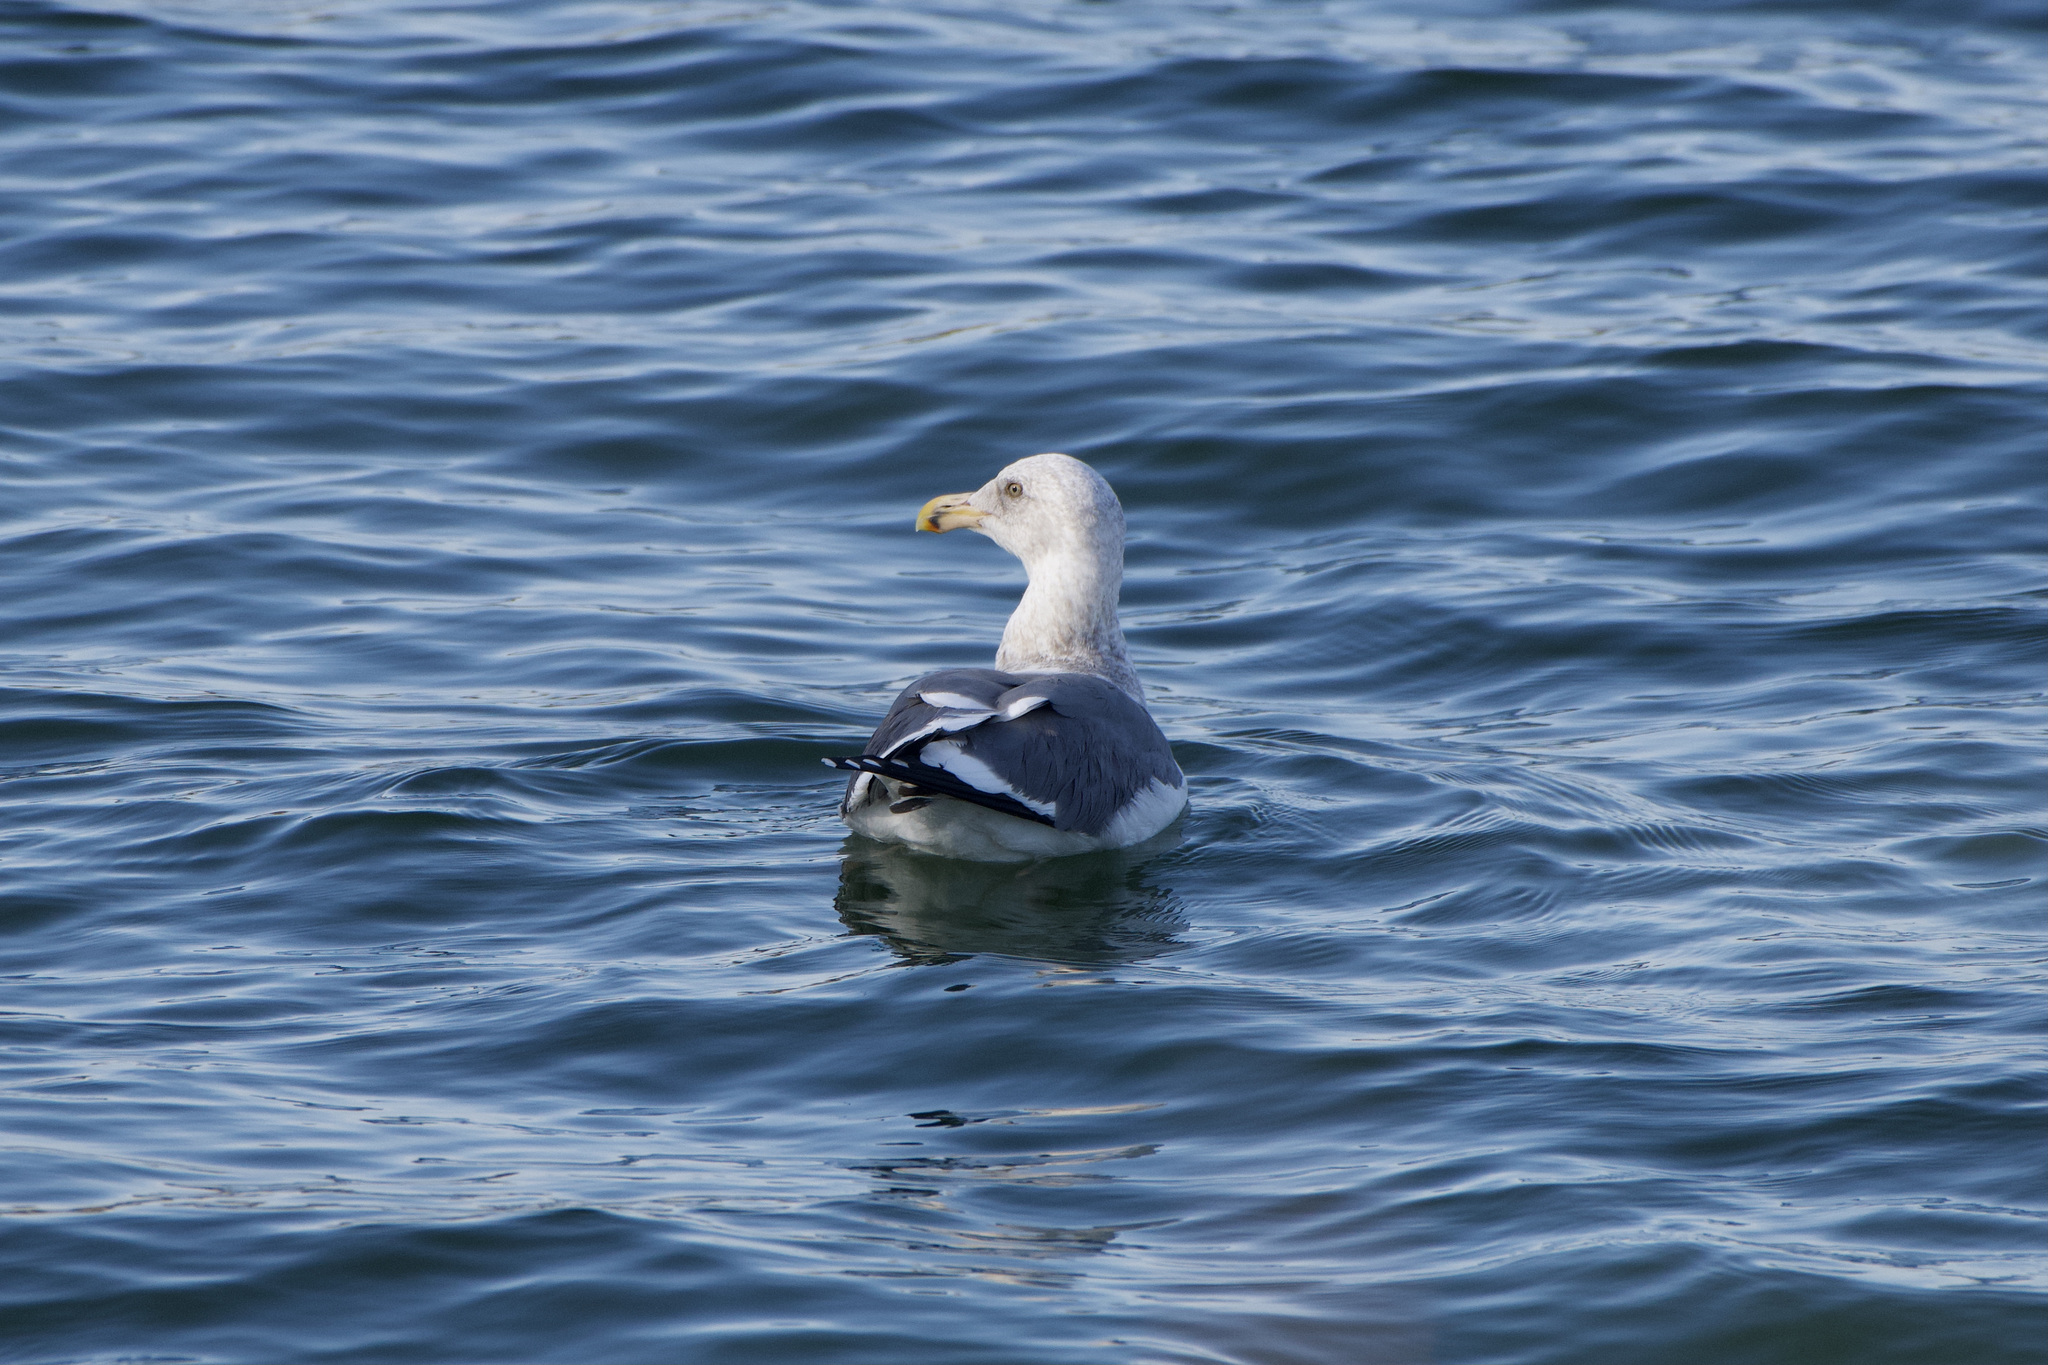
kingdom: Animalia
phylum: Chordata
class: Aves
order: Charadriiformes
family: Laridae
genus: Larus
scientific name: Larus occidentalis
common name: Western gull
